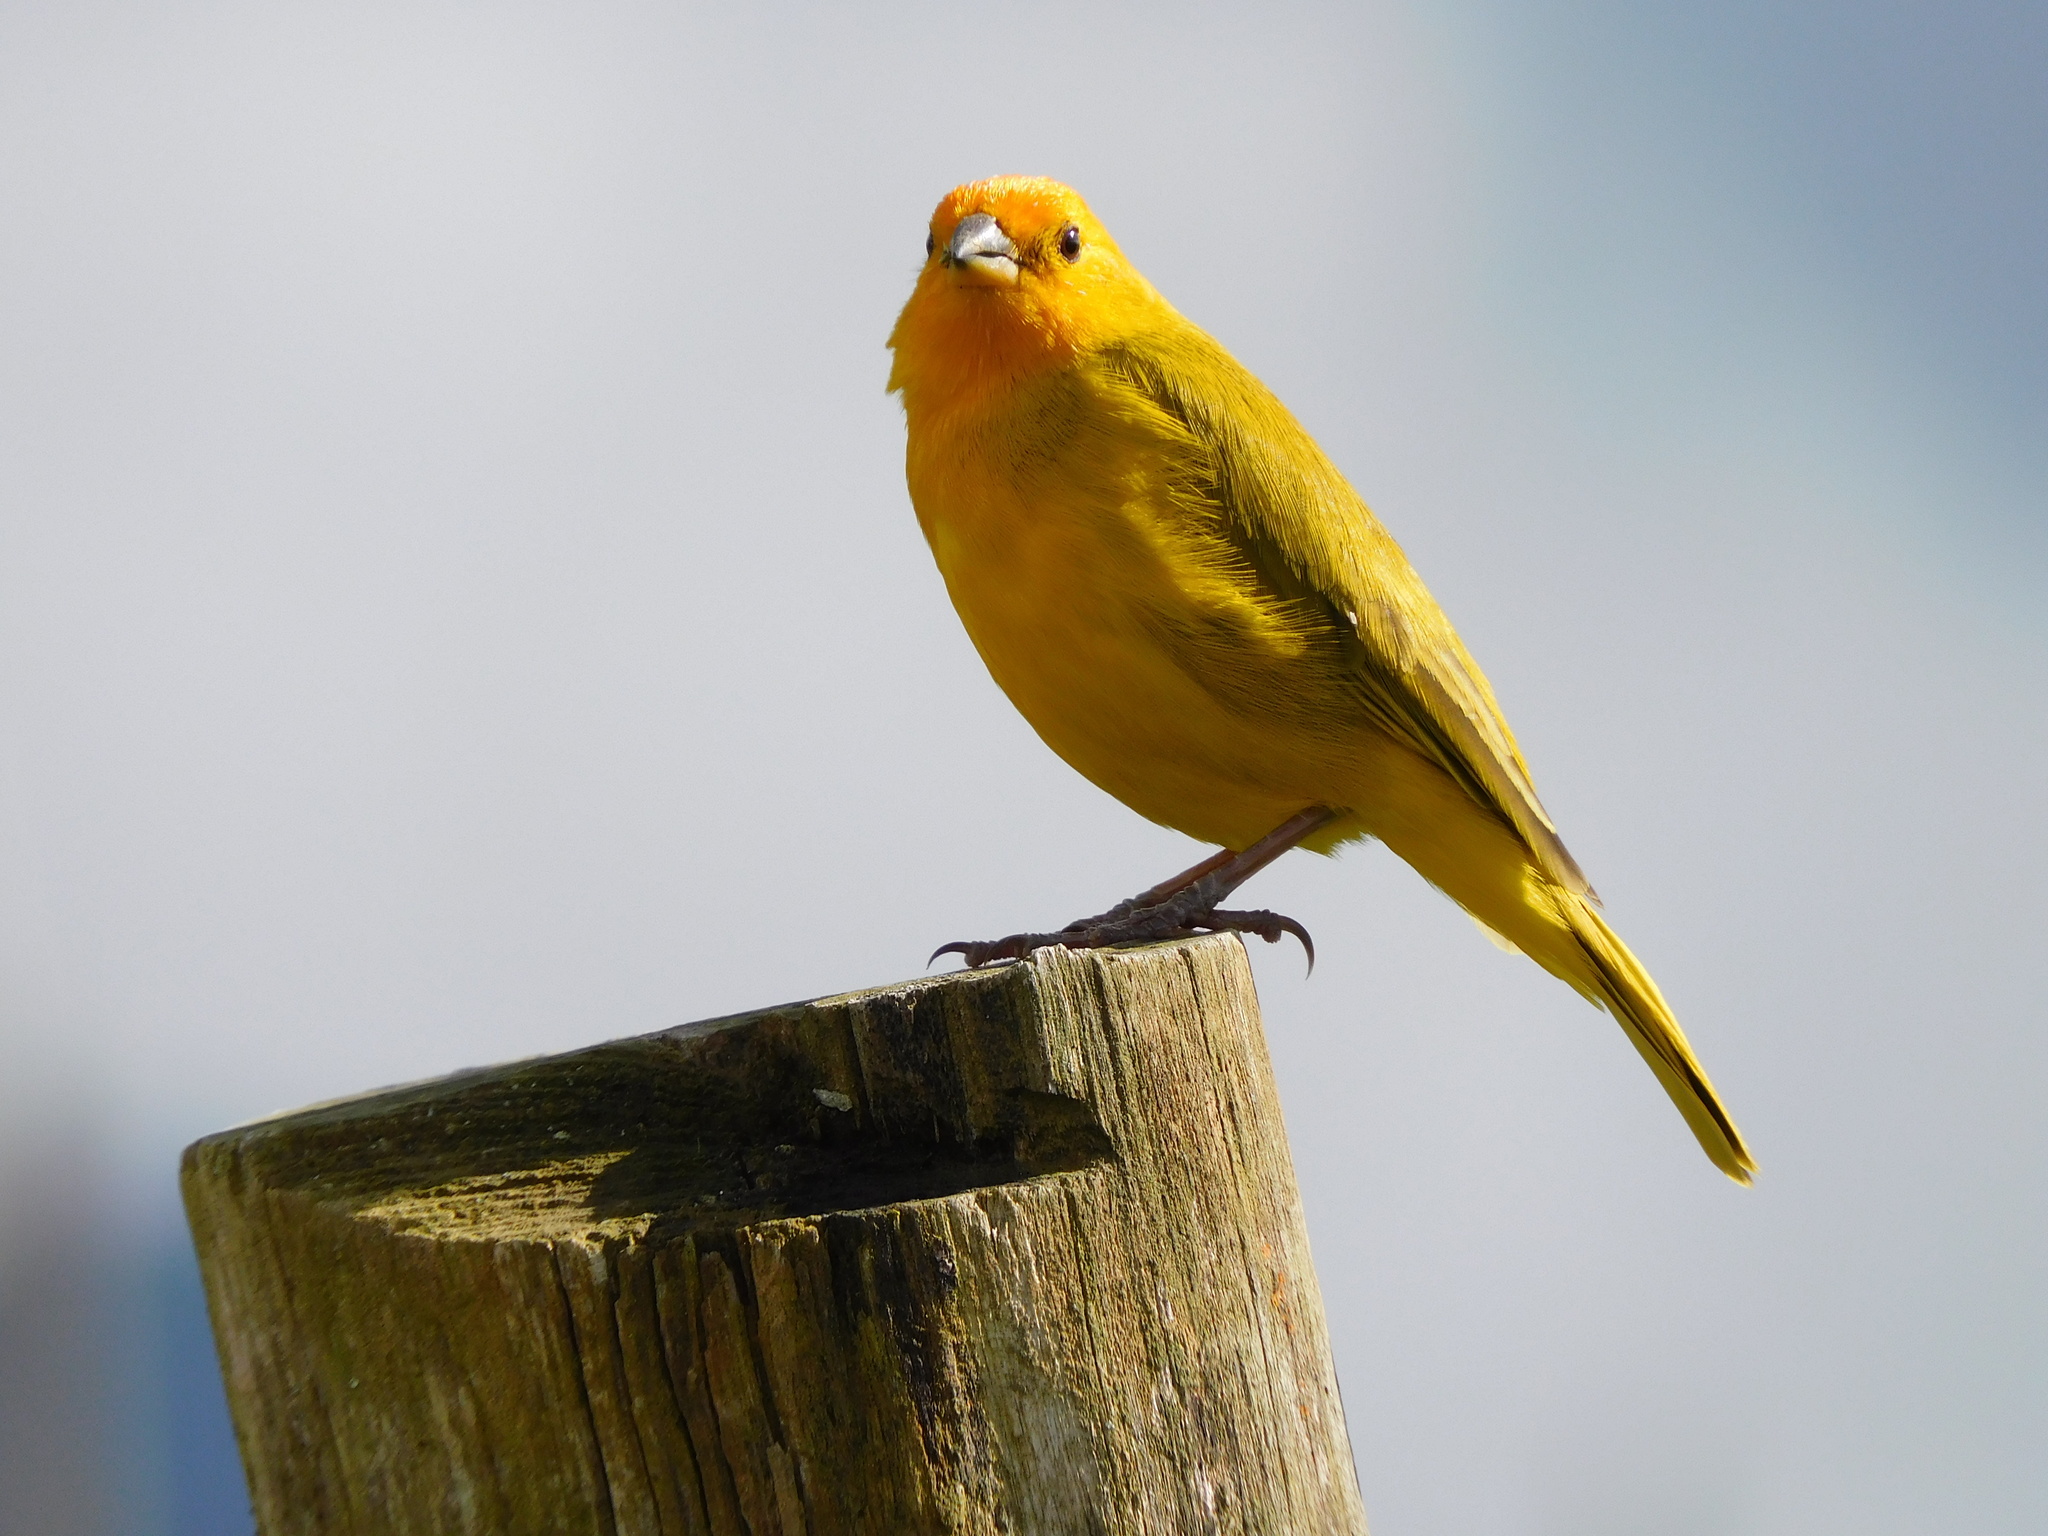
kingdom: Animalia
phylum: Chordata
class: Aves
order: Passeriformes
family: Thraupidae
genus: Sicalis
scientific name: Sicalis flaveola
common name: Saffron finch
